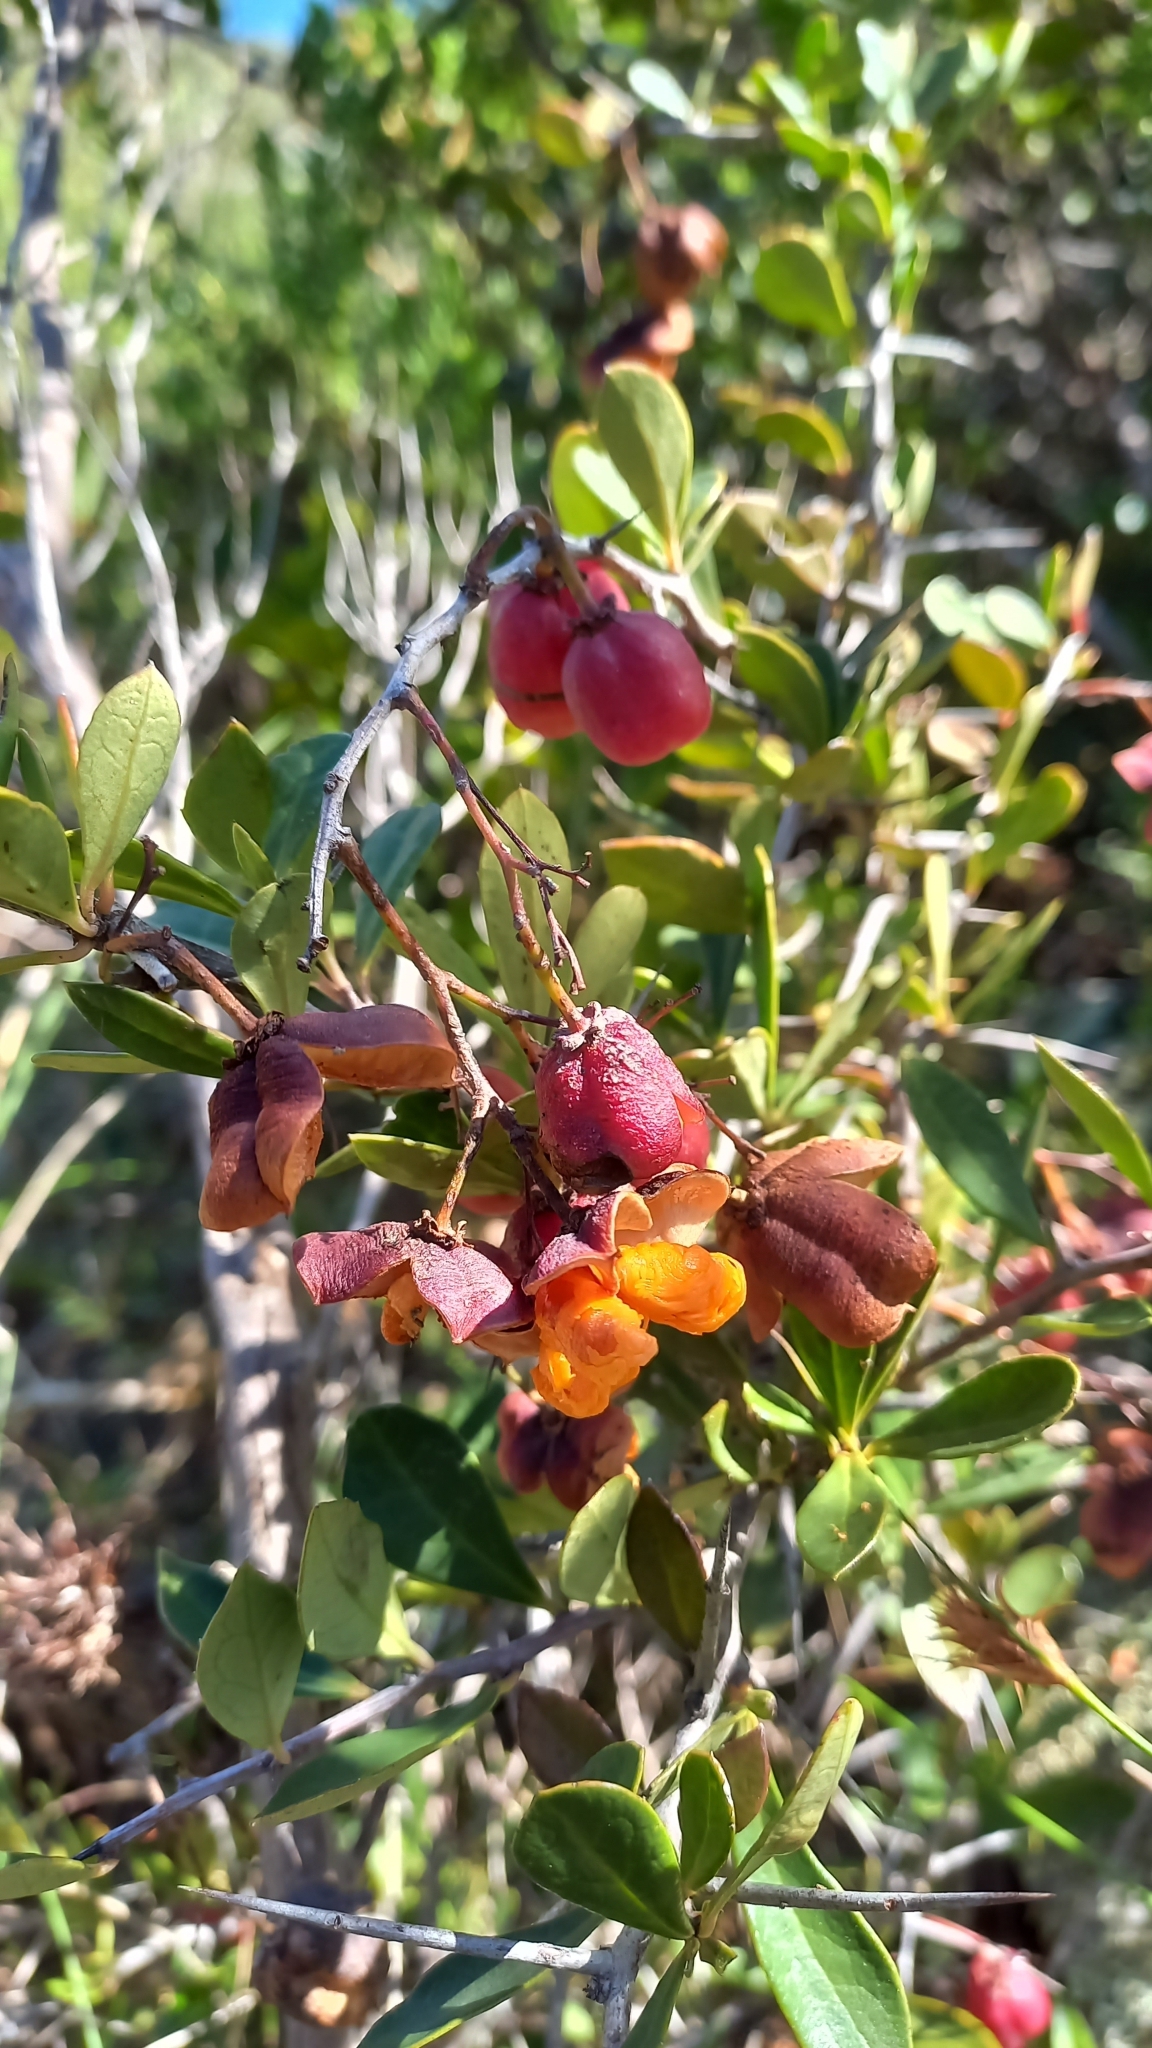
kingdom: Plantae
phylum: Tracheophyta
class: Magnoliopsida
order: Celastrales
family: Celastraceae
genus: Putterlickia
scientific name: Putterlickia pyracantha
